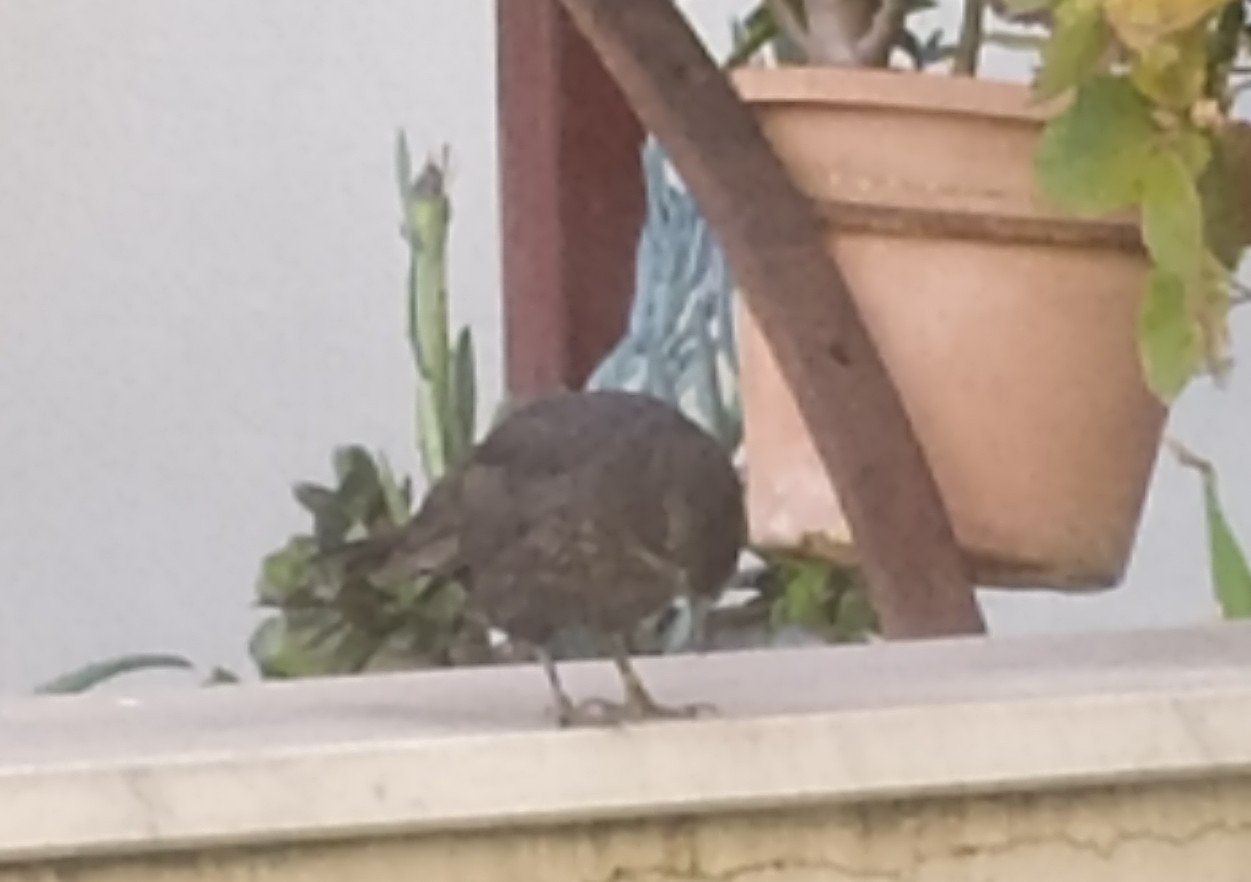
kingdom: Animalia
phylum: Chordata
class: Aves
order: Passeriformes
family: Turdidae
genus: Turdus
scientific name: Turdus merula
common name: Common blackbird
